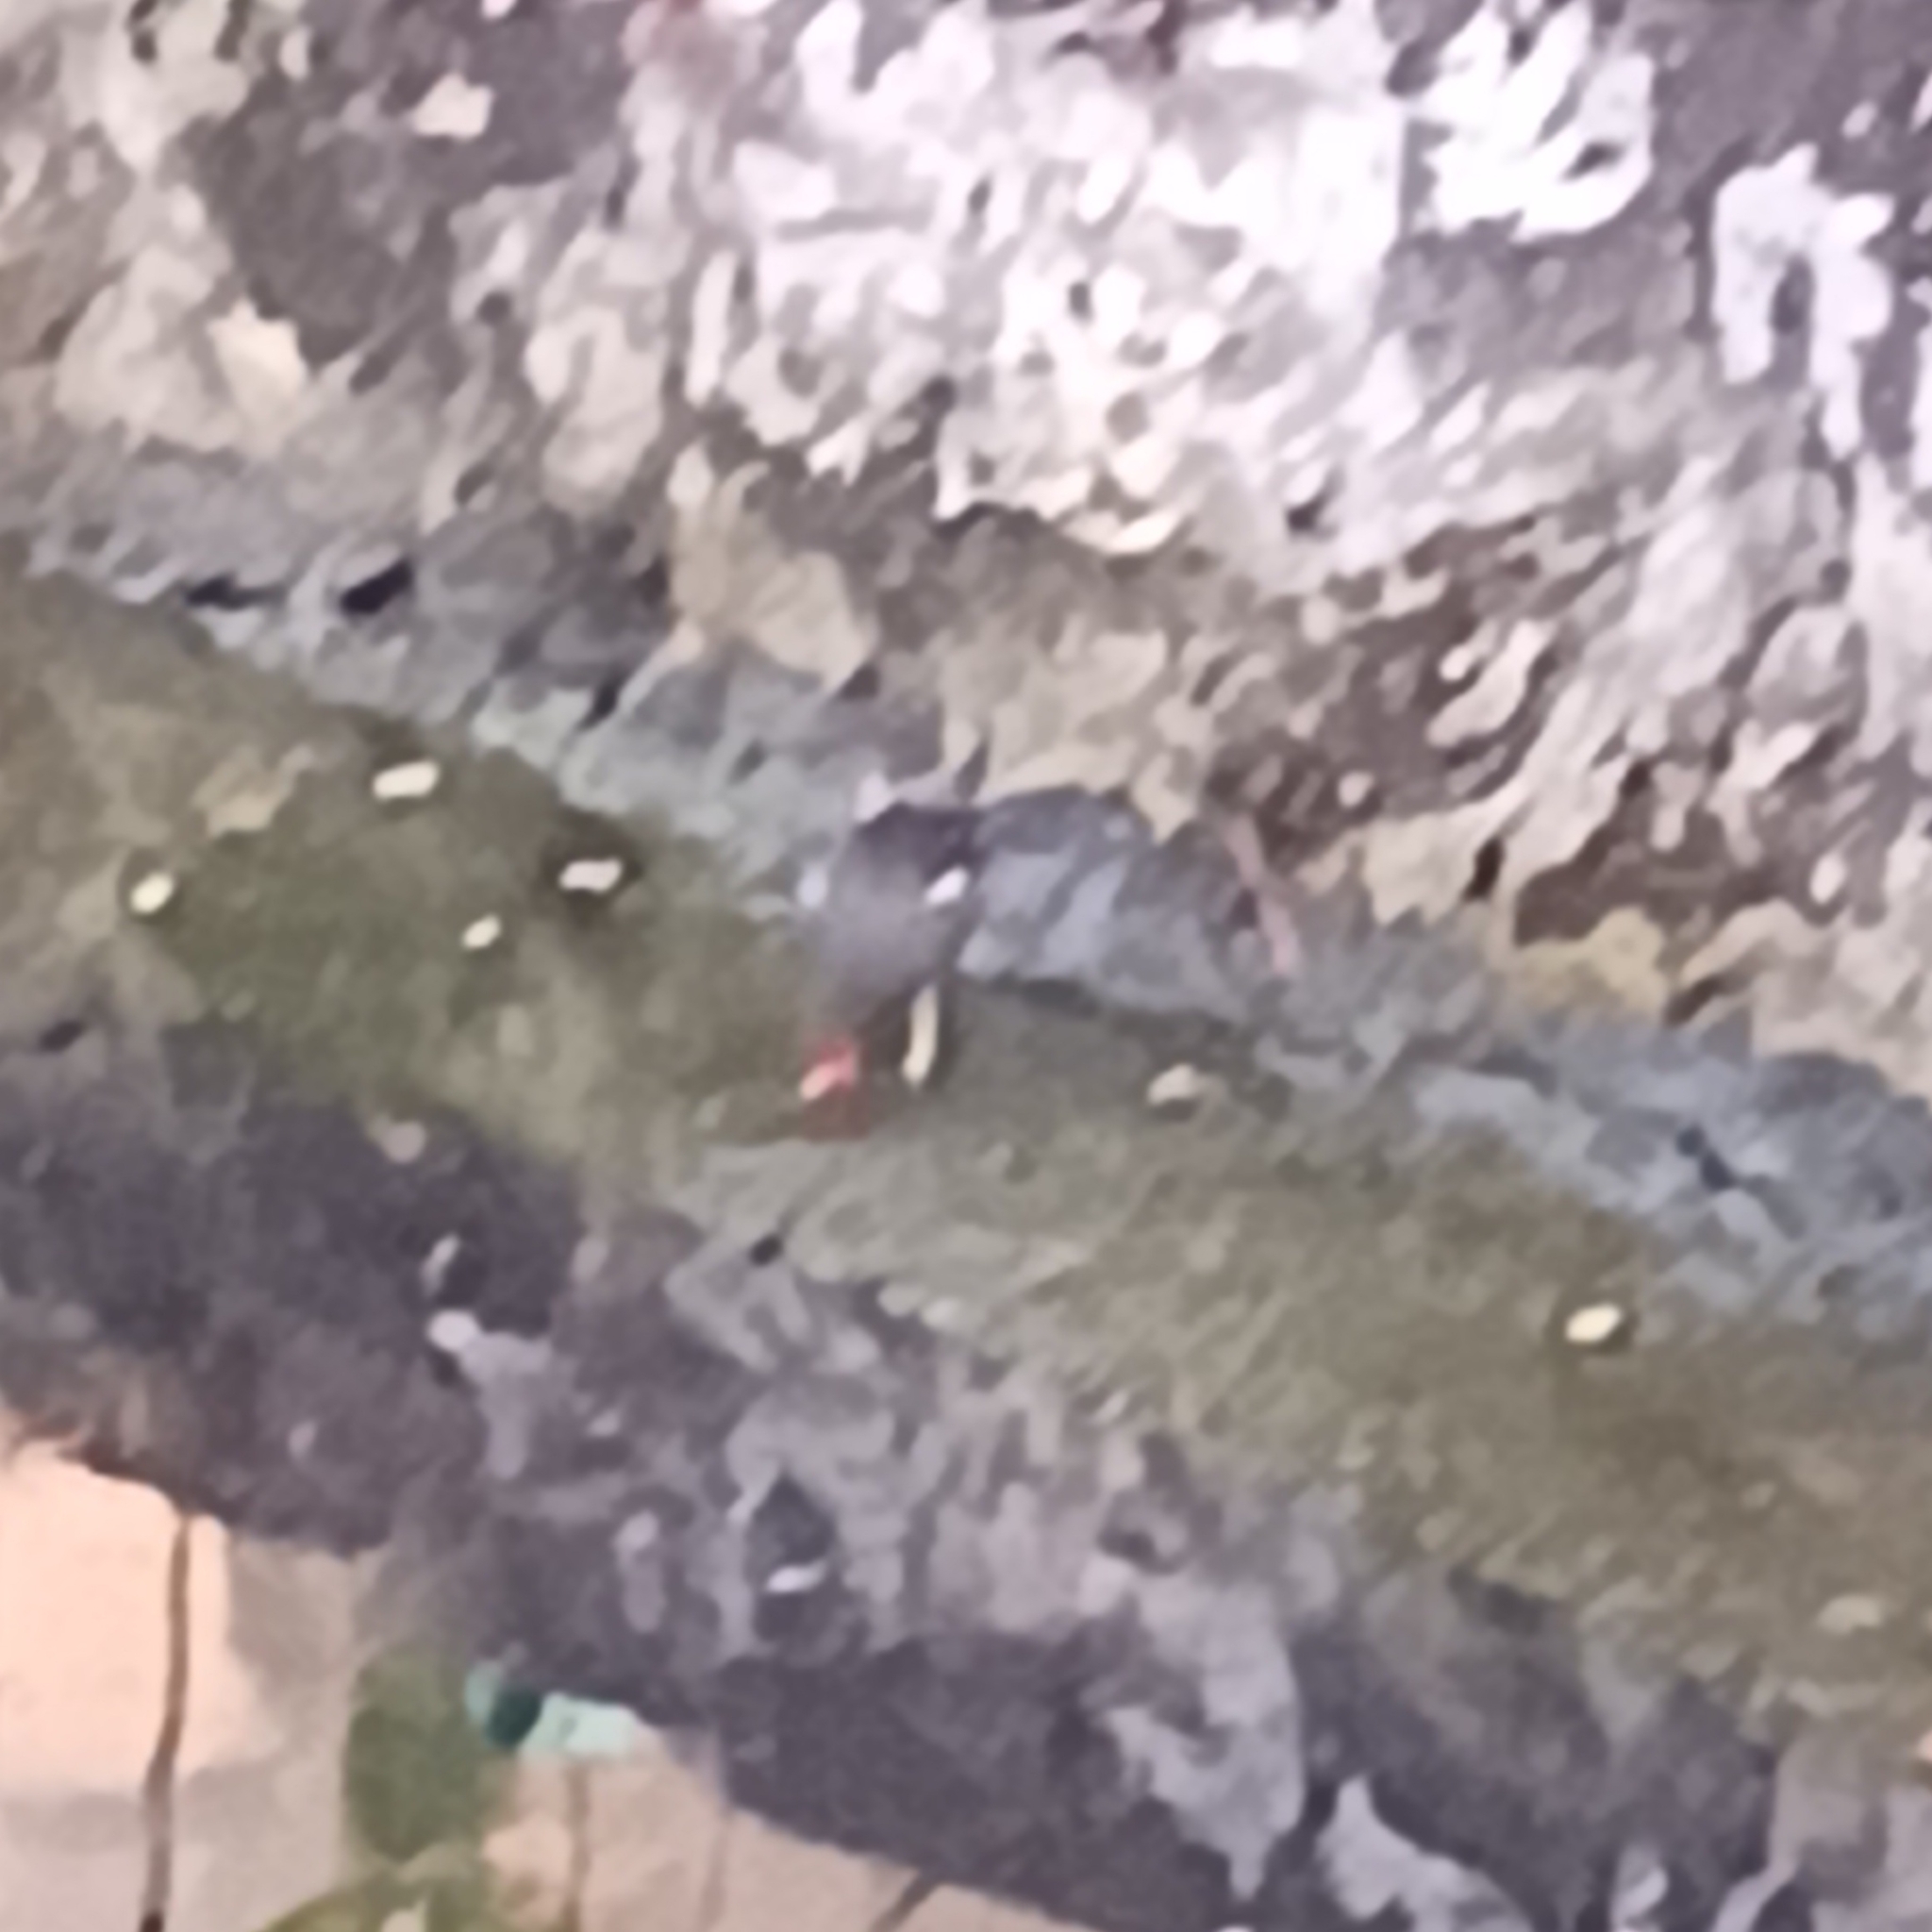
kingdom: Animalia
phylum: Chordata
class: Aves
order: Gruiformes
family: Rallidae
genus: Gallinula
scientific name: Gallinula chloropus
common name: Common moorhen
